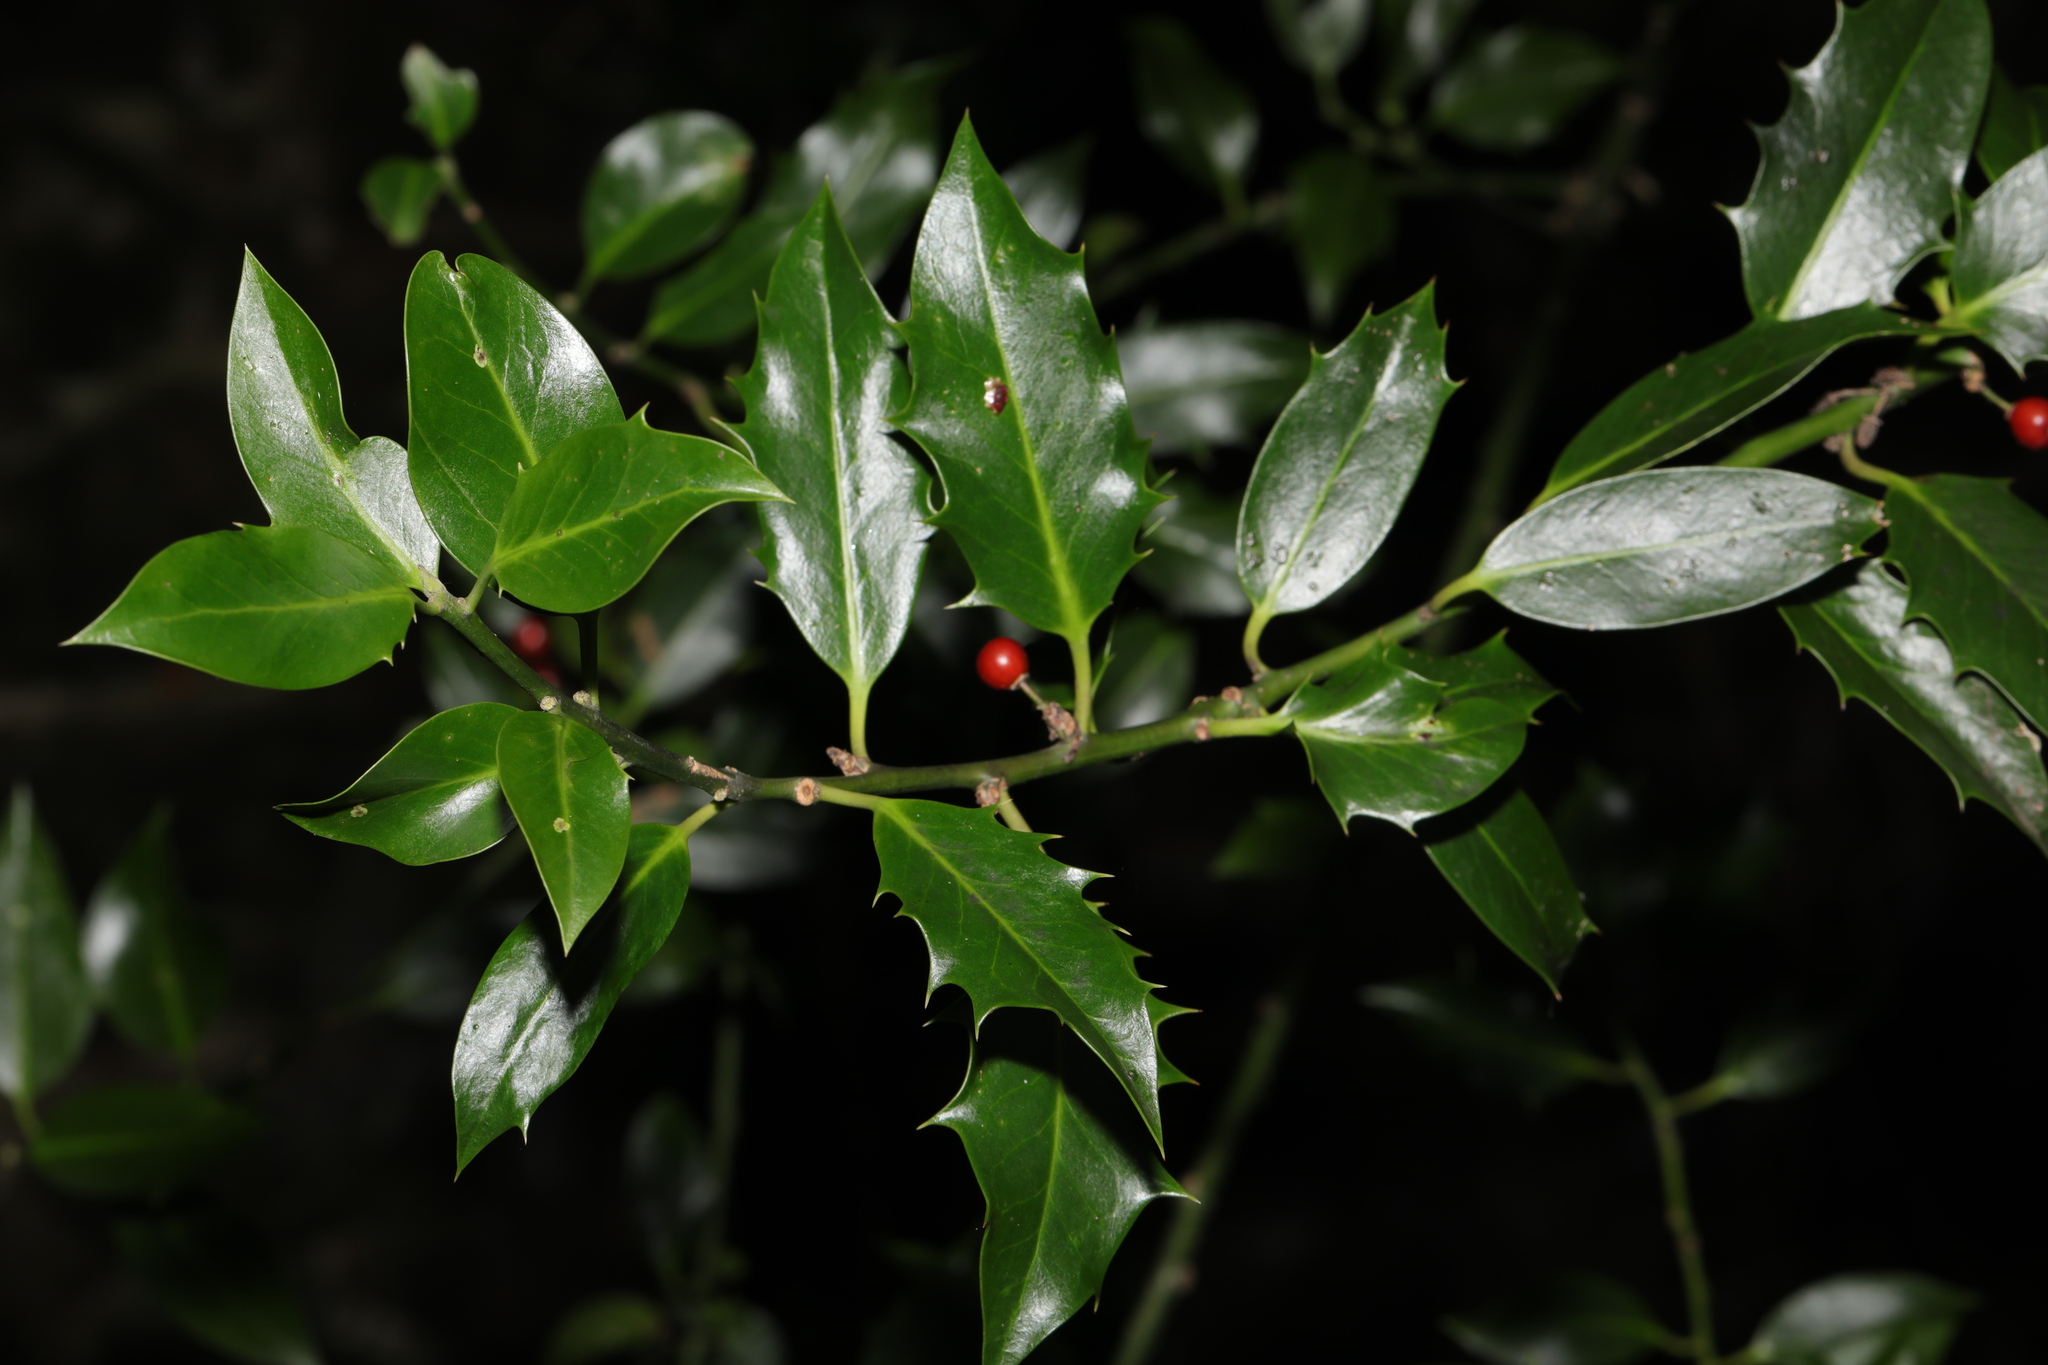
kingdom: Plantae
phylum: Tracheophyta
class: Magnoliopsida
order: Aquifoliales
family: Aquifoliaceae
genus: Ilex
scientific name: Ilex aquifolium
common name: English holly
